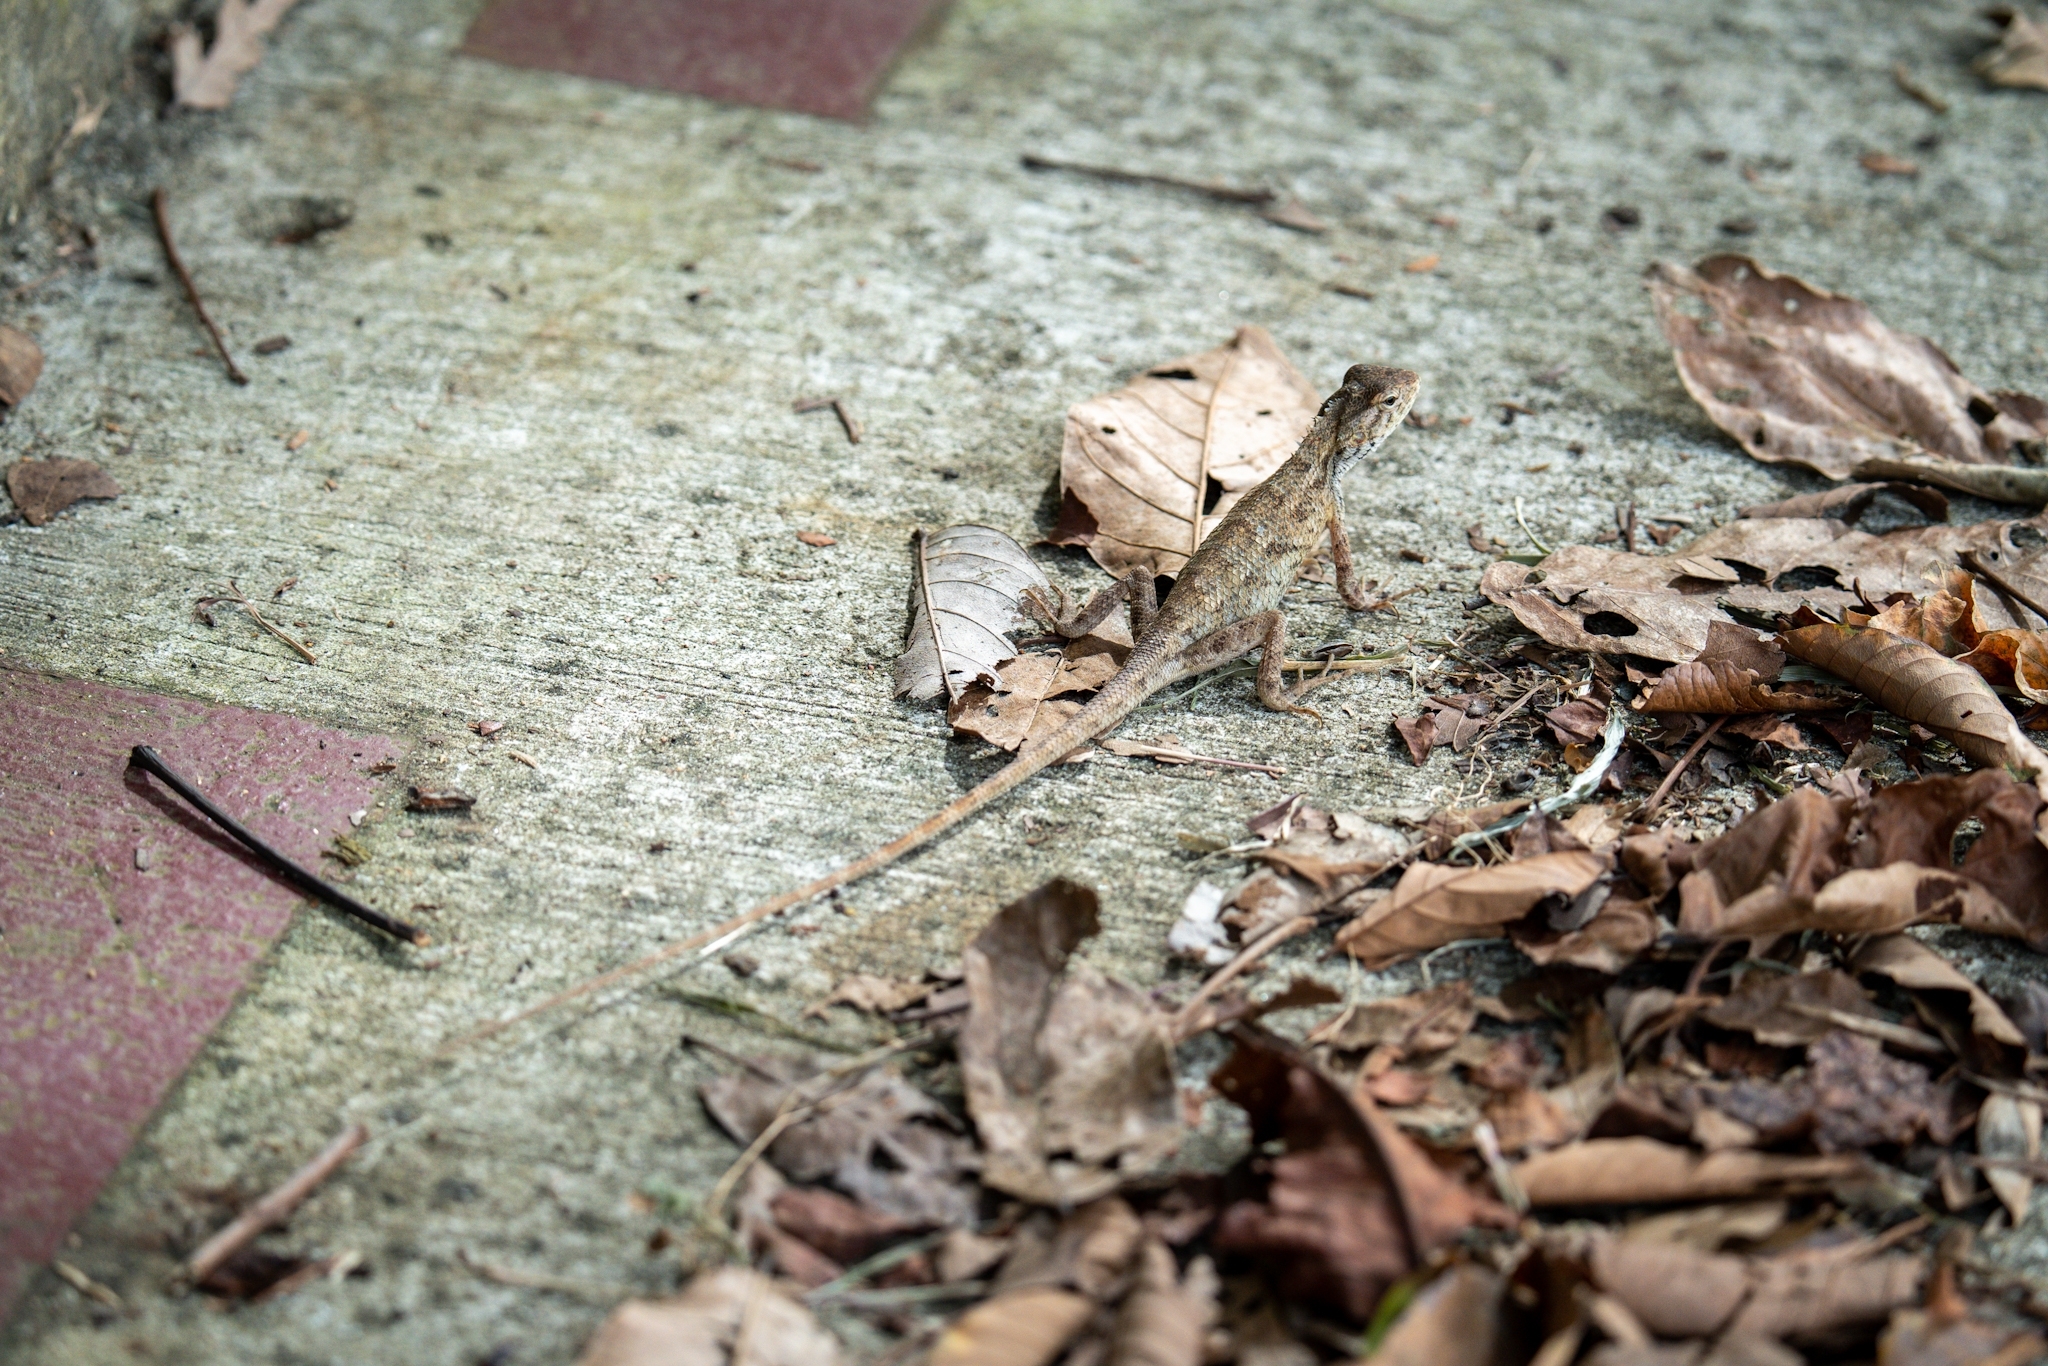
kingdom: Animalia
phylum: Chordata
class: Squamata
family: Agamidae
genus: Calotes
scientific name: Calotes versicolor
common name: Oriental garden lizard
